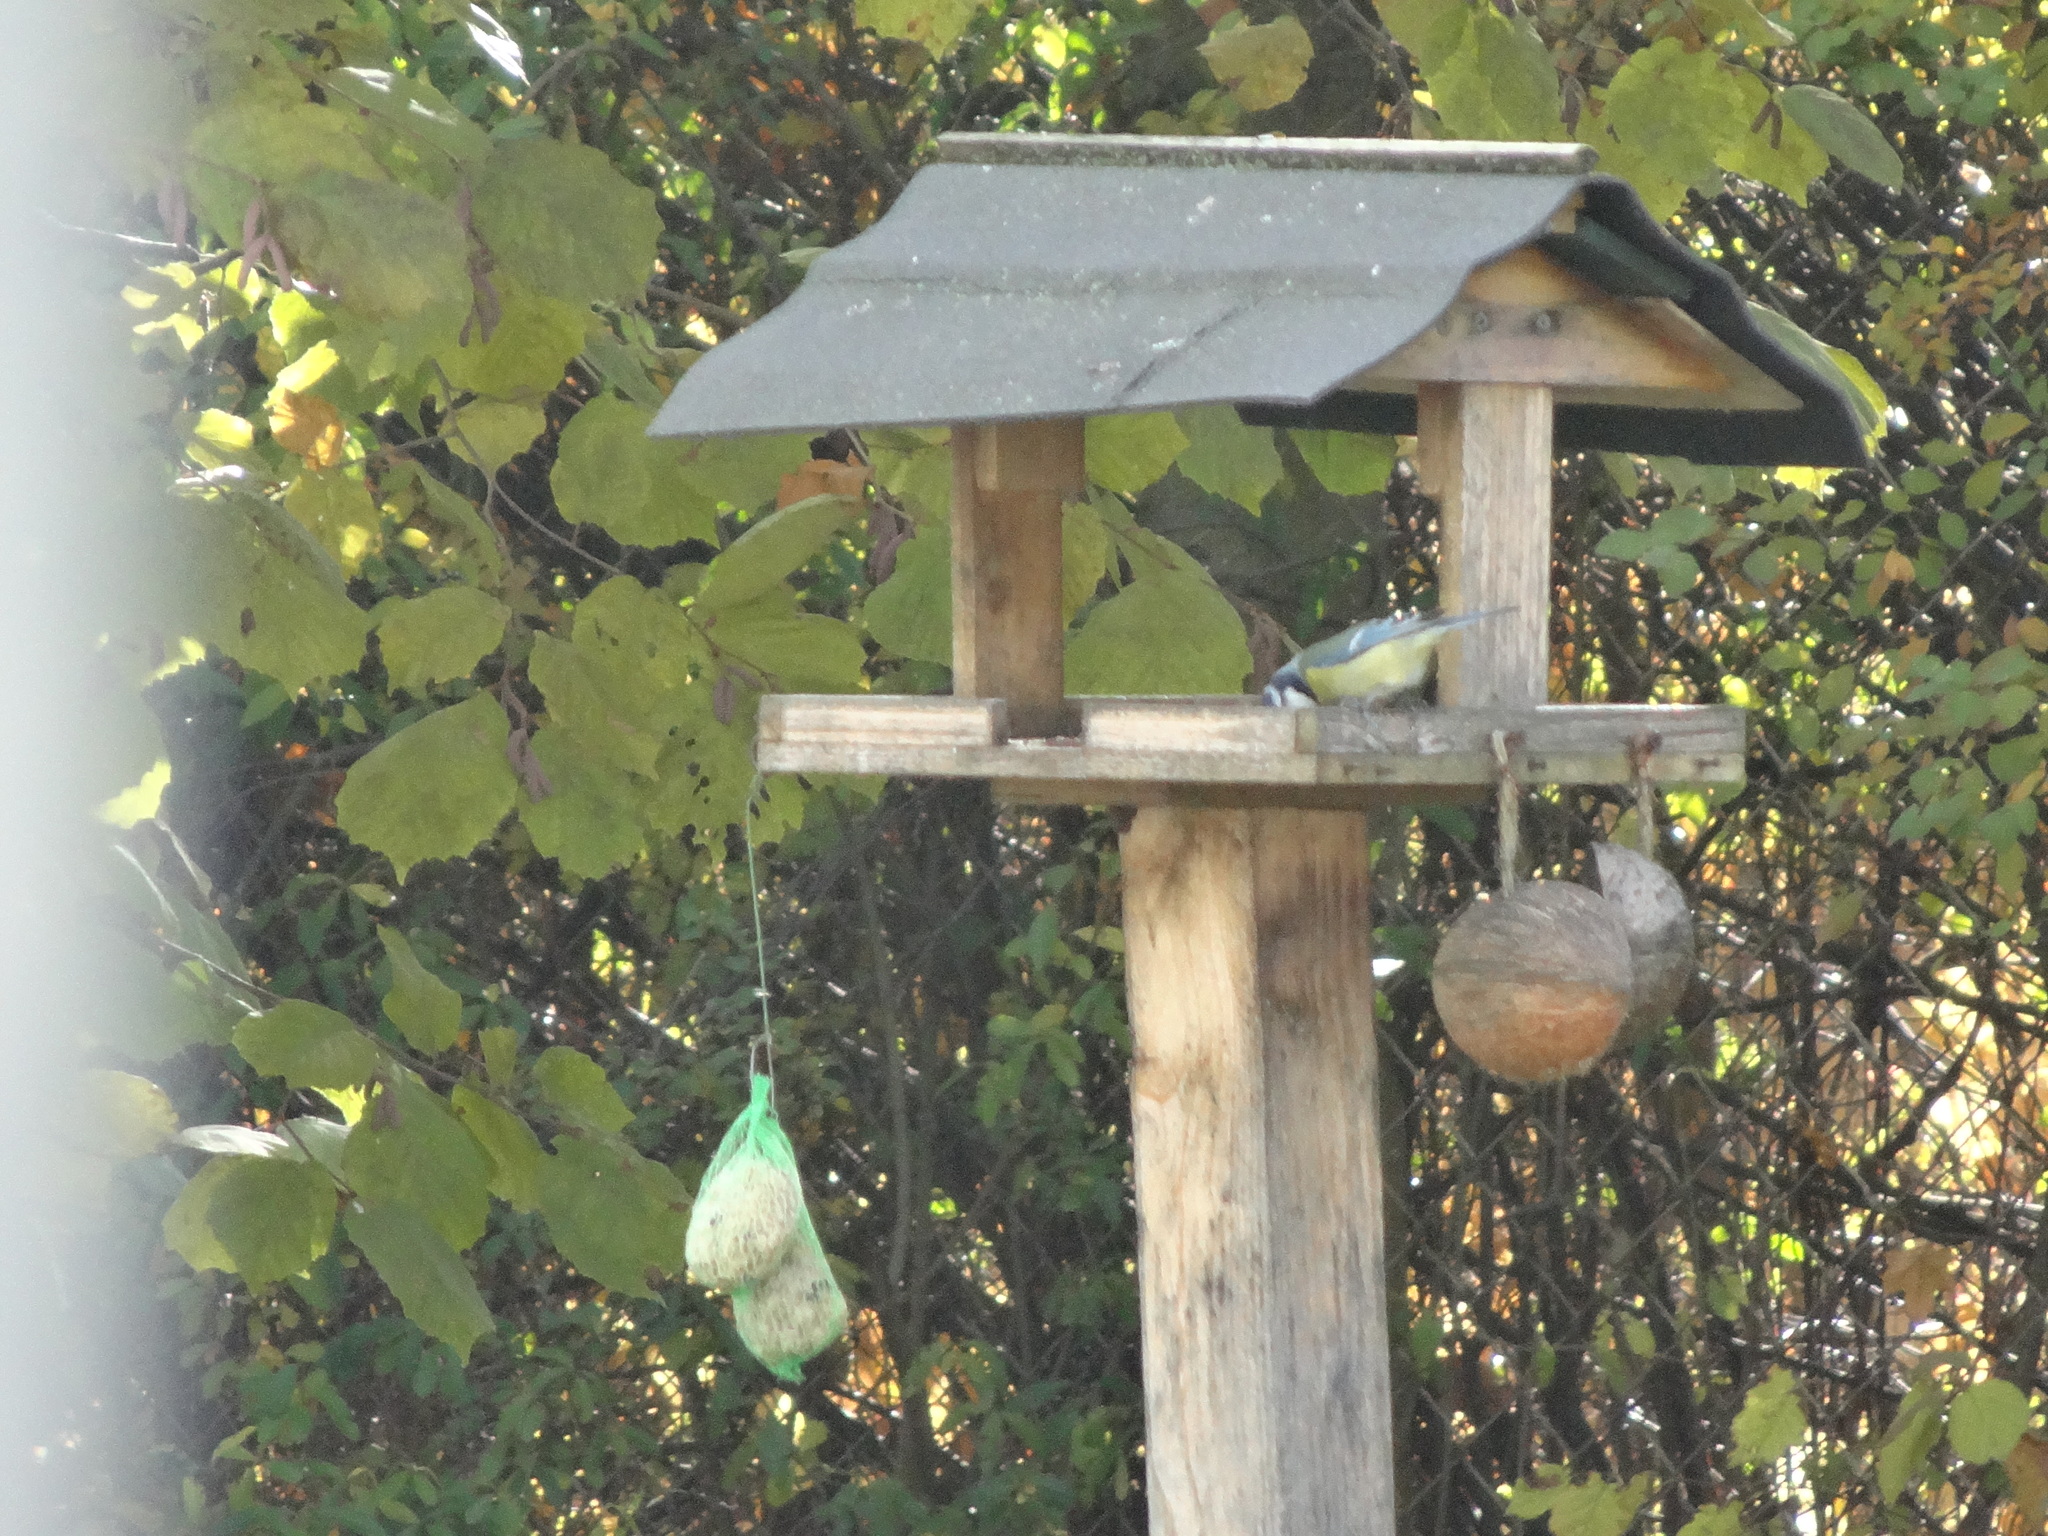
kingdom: Animalia
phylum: Chordata
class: Aves
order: Passeriformes
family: Paridae
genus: Cyanistes
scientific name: Cyanistes caeruleus
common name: Eurasian blue tit
